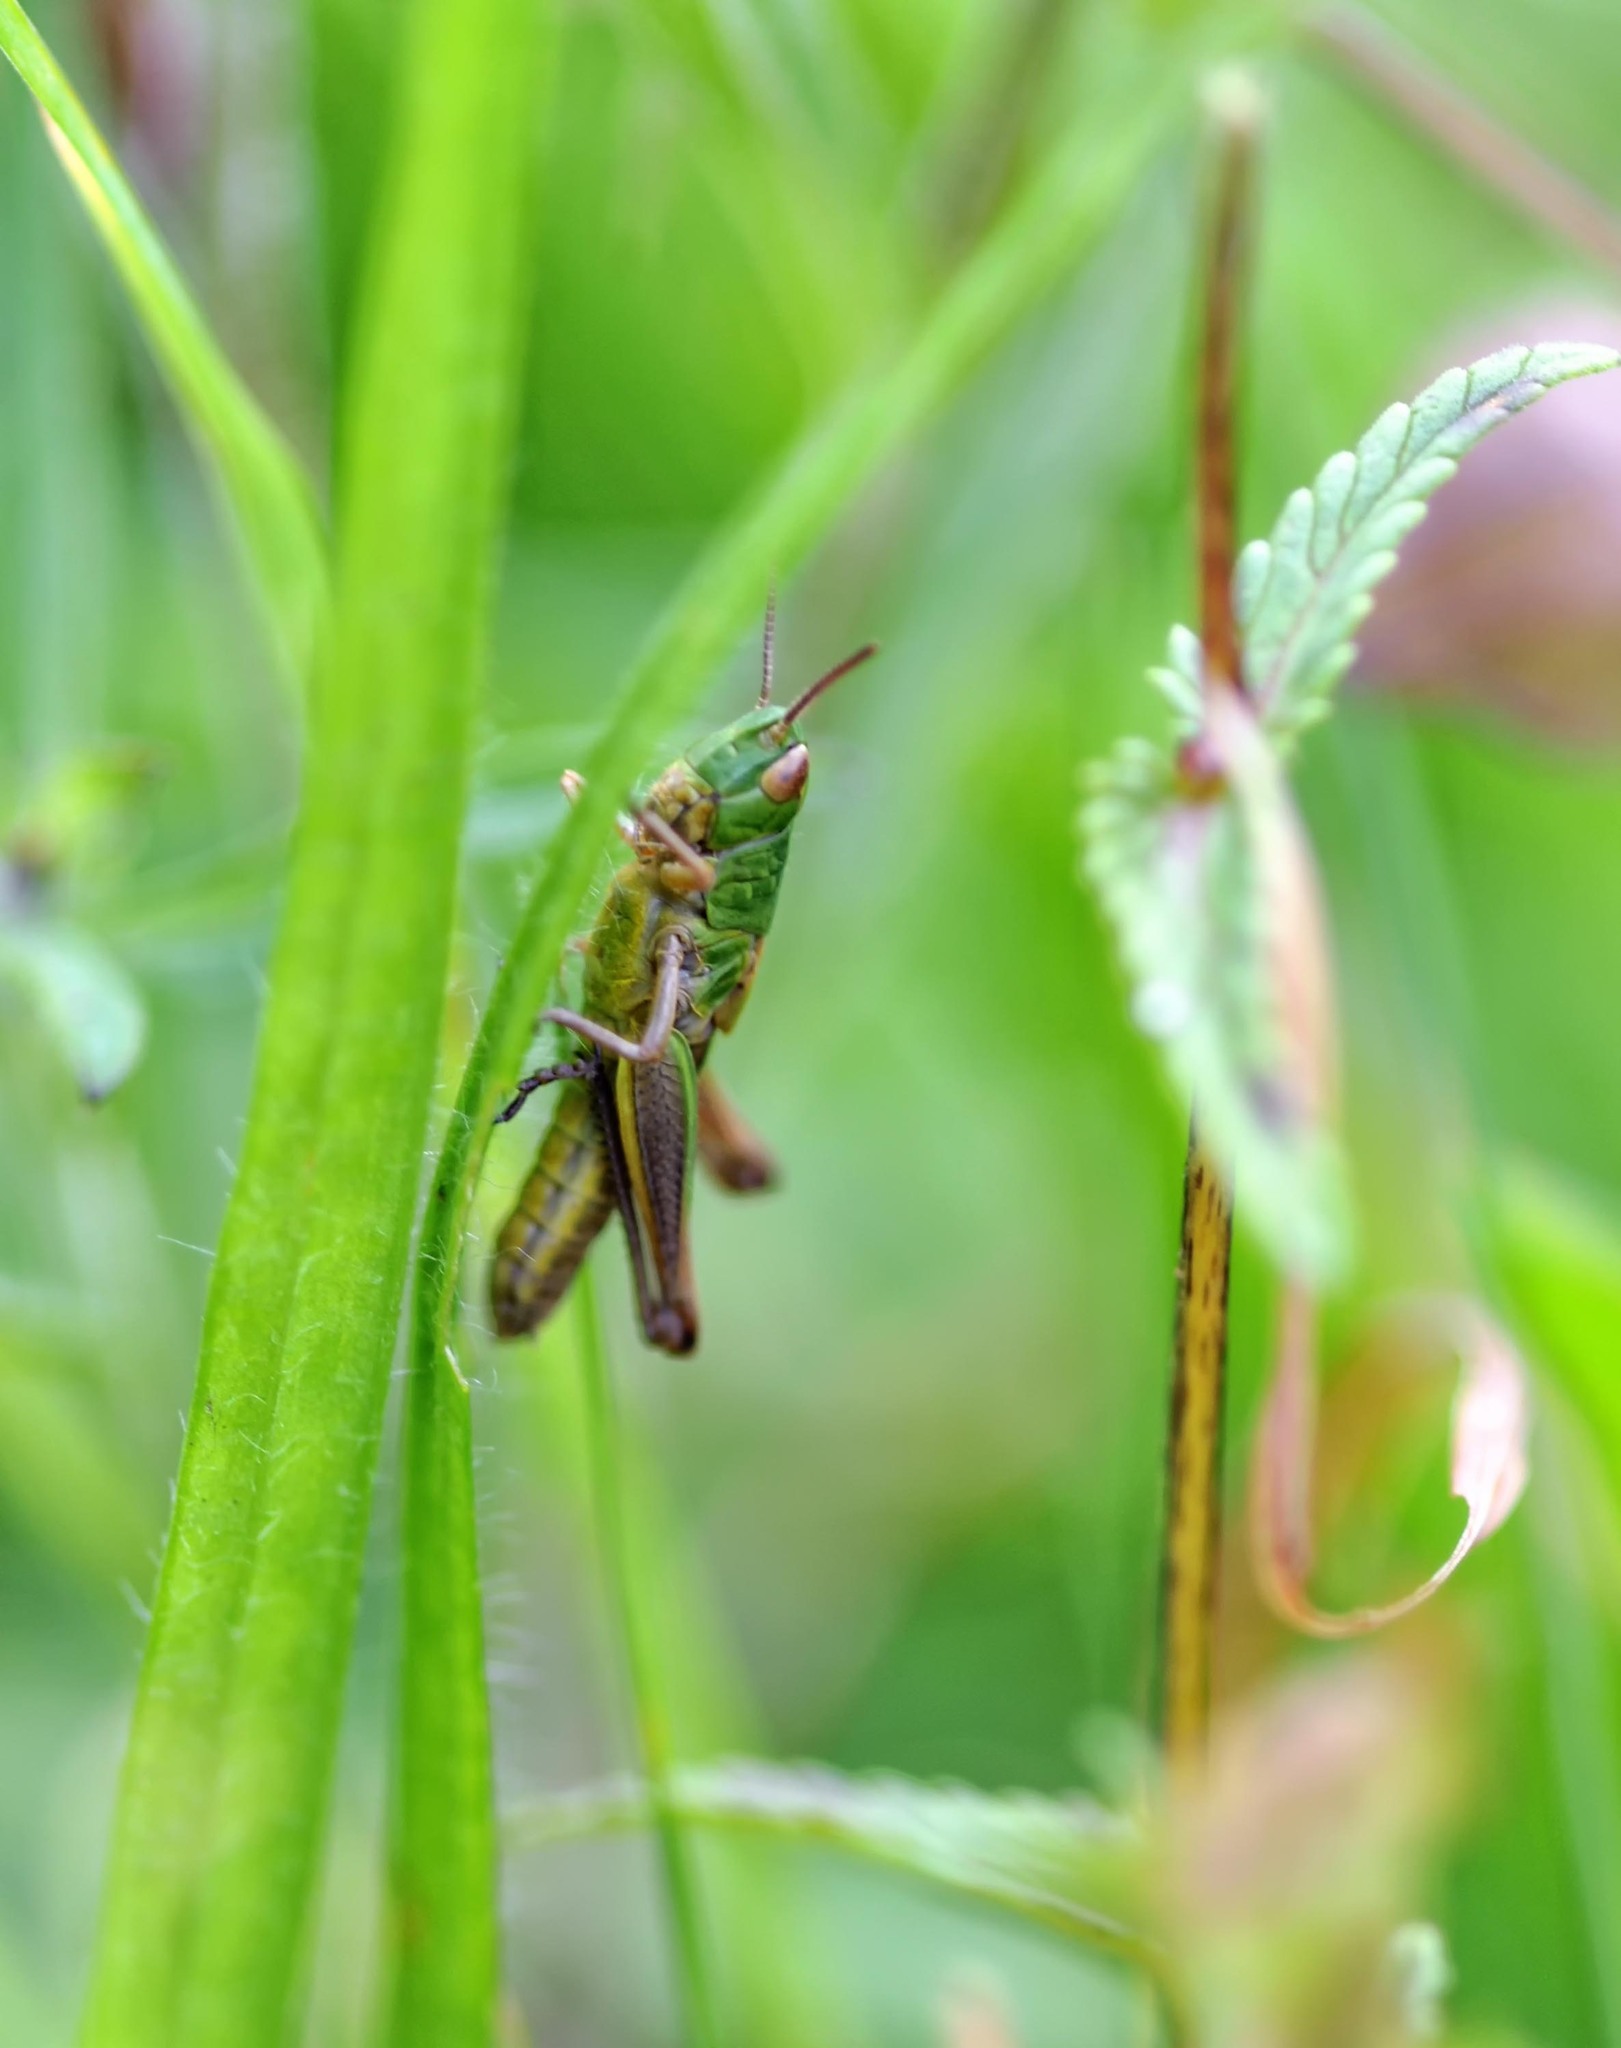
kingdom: Animalia
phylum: Arthropoda
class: Insecta
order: Orthoptera
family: Acrididae
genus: Pseudochorthippus
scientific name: Pseudochorthippus parallelus
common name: Meadow grasshopper
